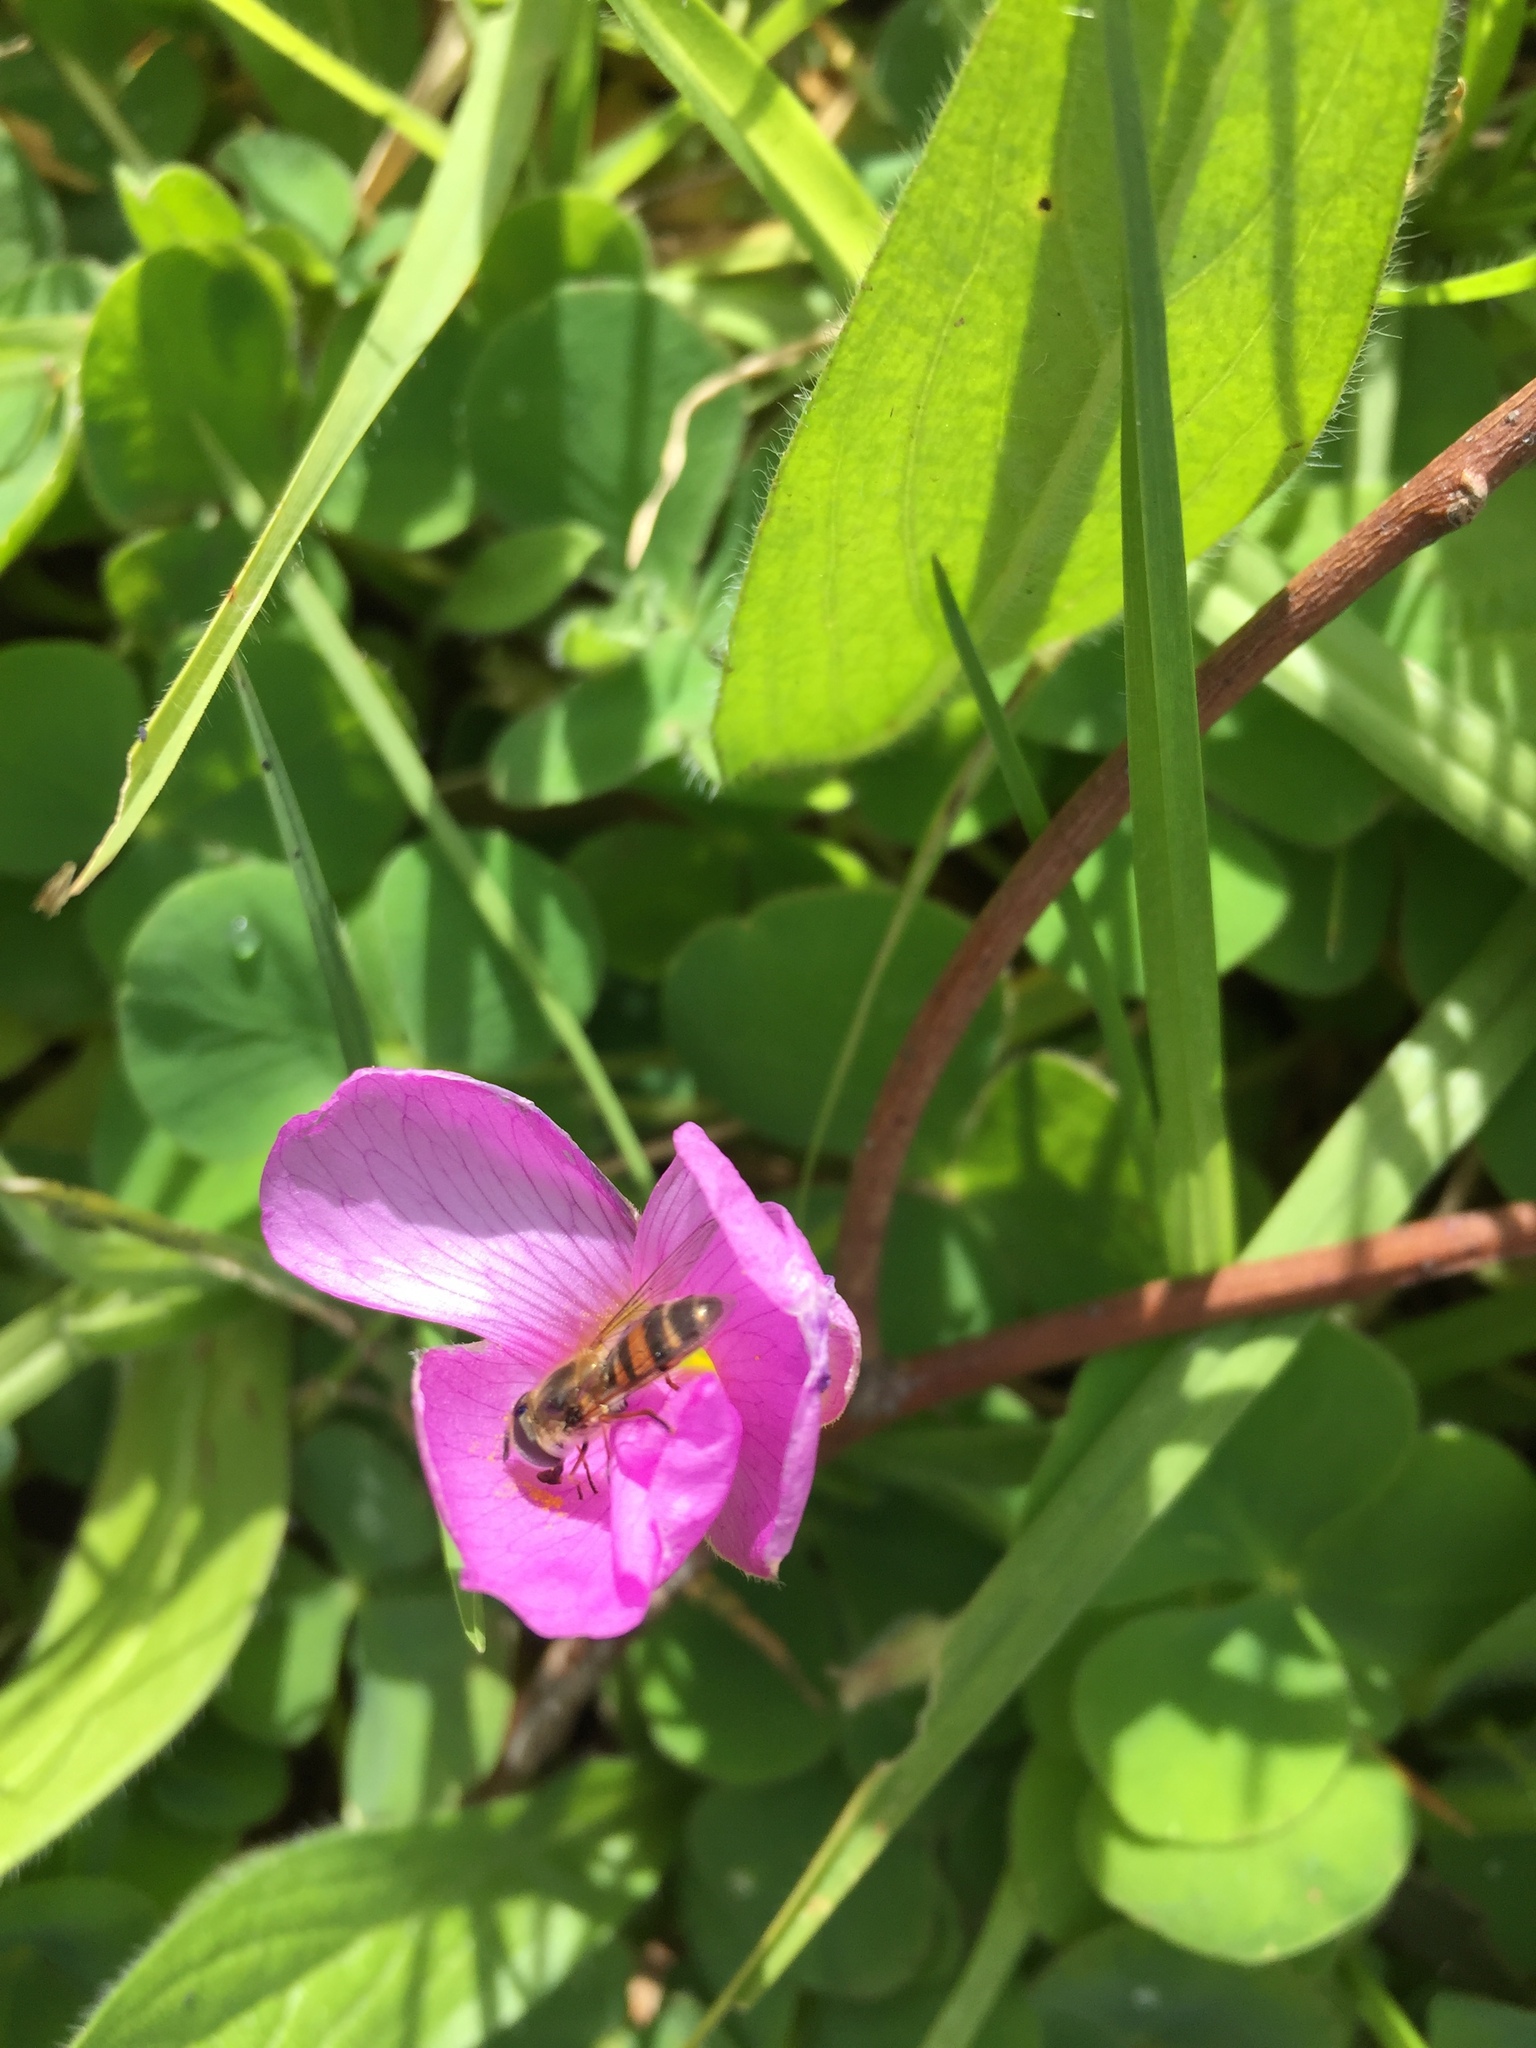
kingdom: Animalia
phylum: Arthropoda
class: Insecta
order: Diptera
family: Syrphidae
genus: Betasyrphus
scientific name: Betasyrphus adligatus
